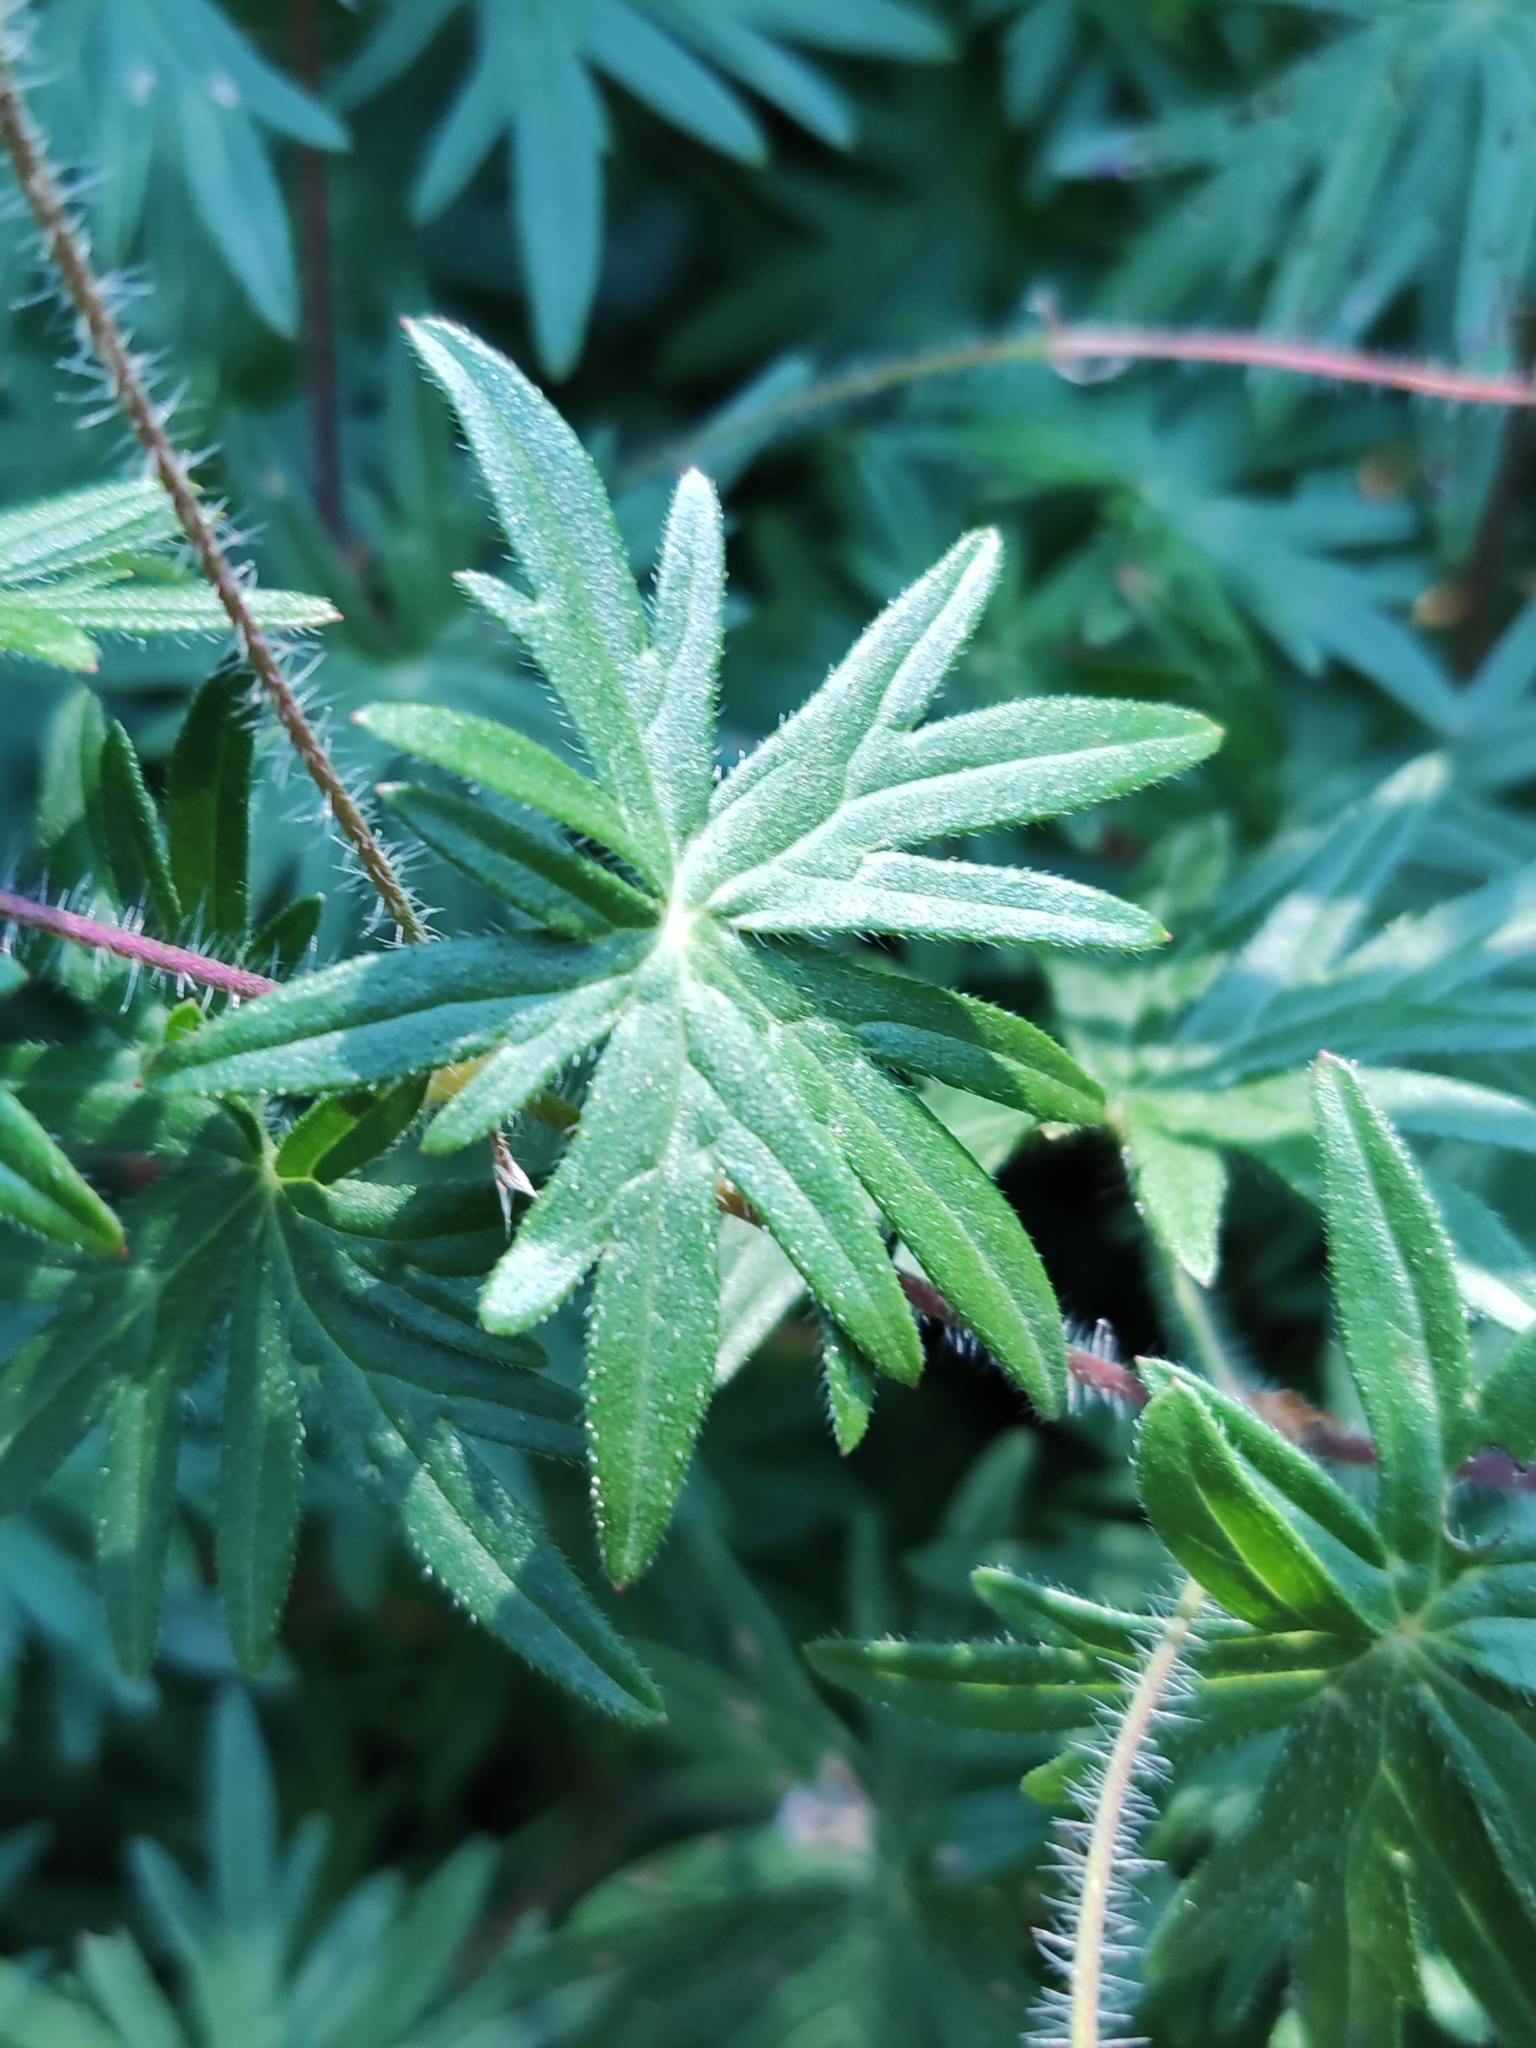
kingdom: Plantae
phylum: Tracheophyta
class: Magnoliopsida
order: Geraniales
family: Geraniaceae
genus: Geranium
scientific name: Geranium sanguineum
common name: Bloody crane's-bill
